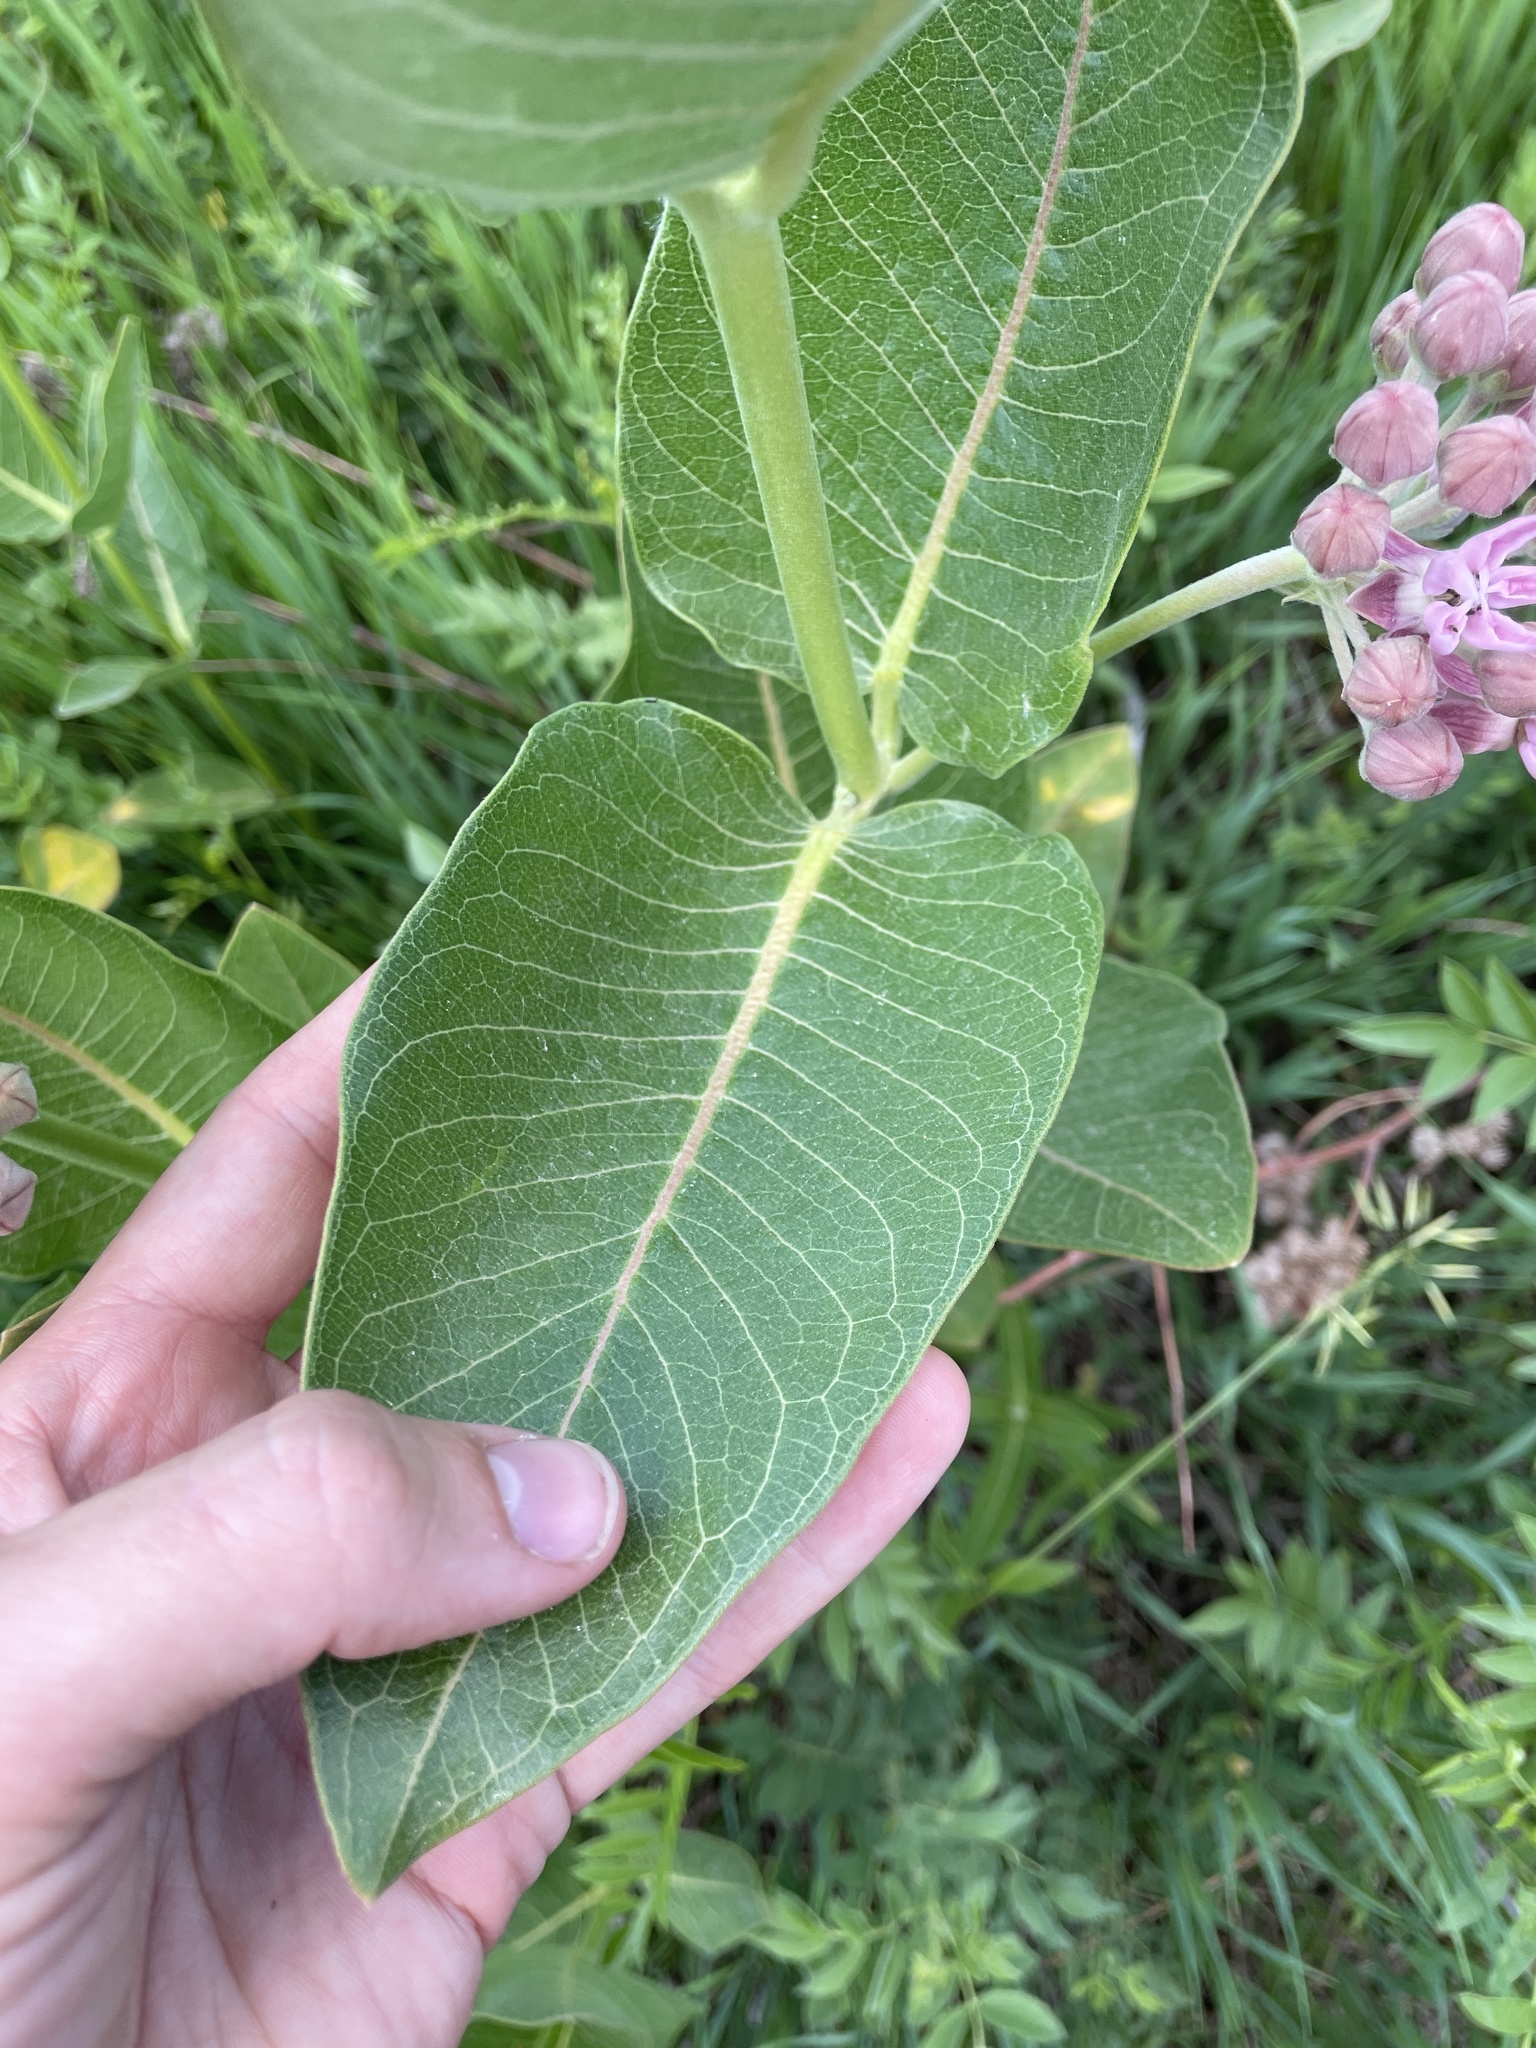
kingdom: Plantae
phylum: Tracheophyta
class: Magnoliopsida
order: Gentianales
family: Apocynaceae
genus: Asclepias
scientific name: Asclepias speciosa
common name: Showy milkweed
